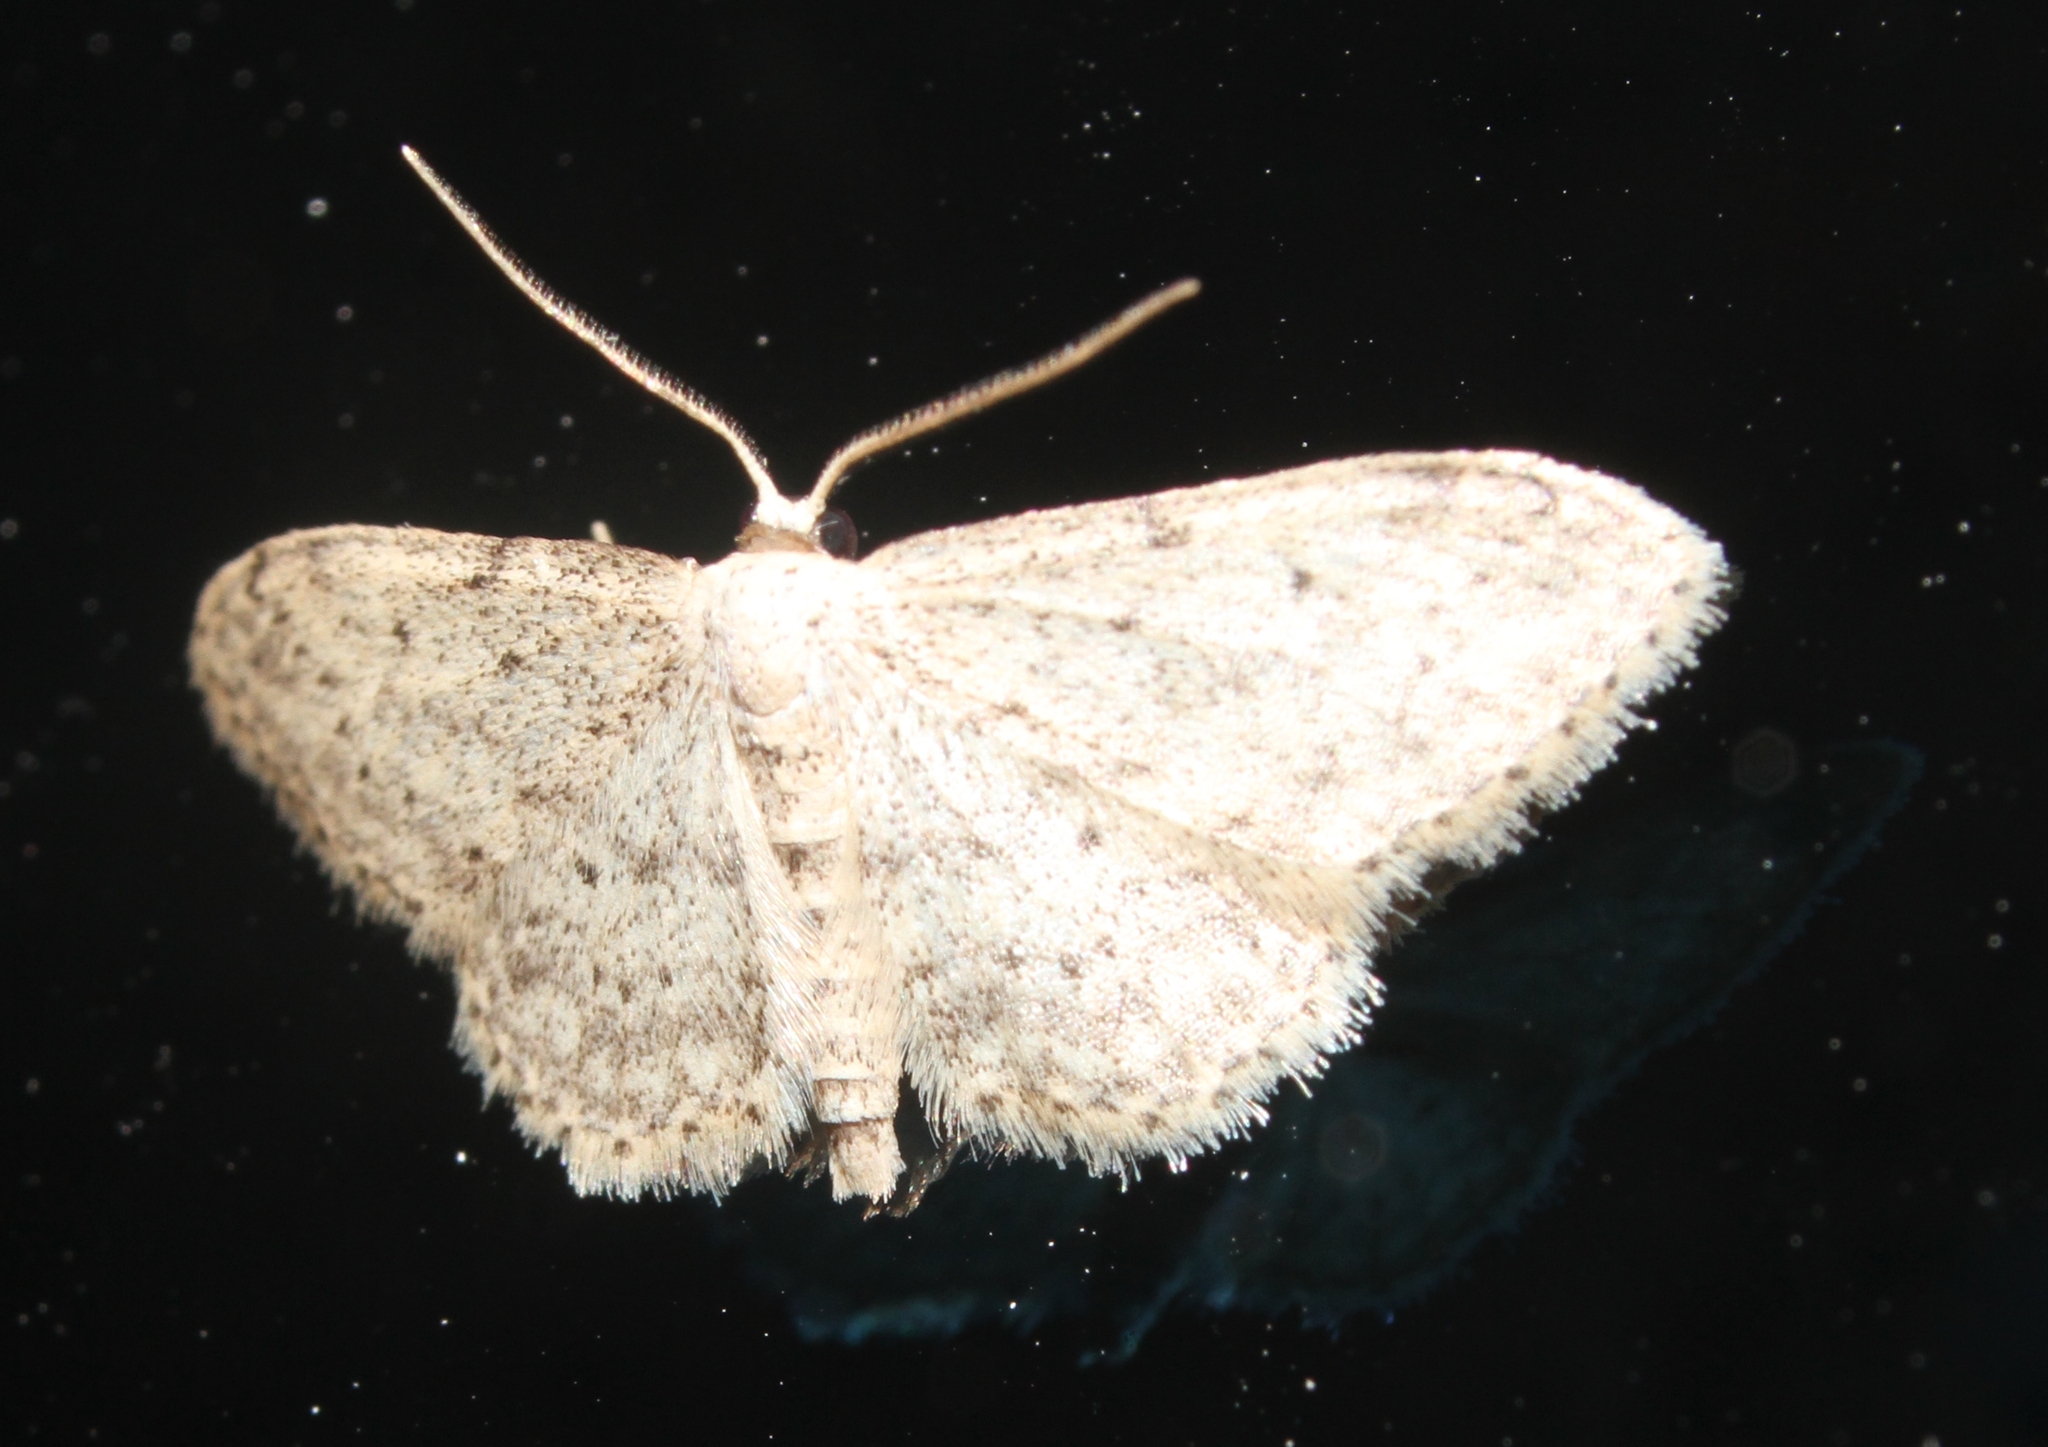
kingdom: Animalia
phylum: Arthropoda
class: Insecta
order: Lepidoptera
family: Geometridae
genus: Idaea
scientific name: Idaea seriata
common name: Small dusty wave
